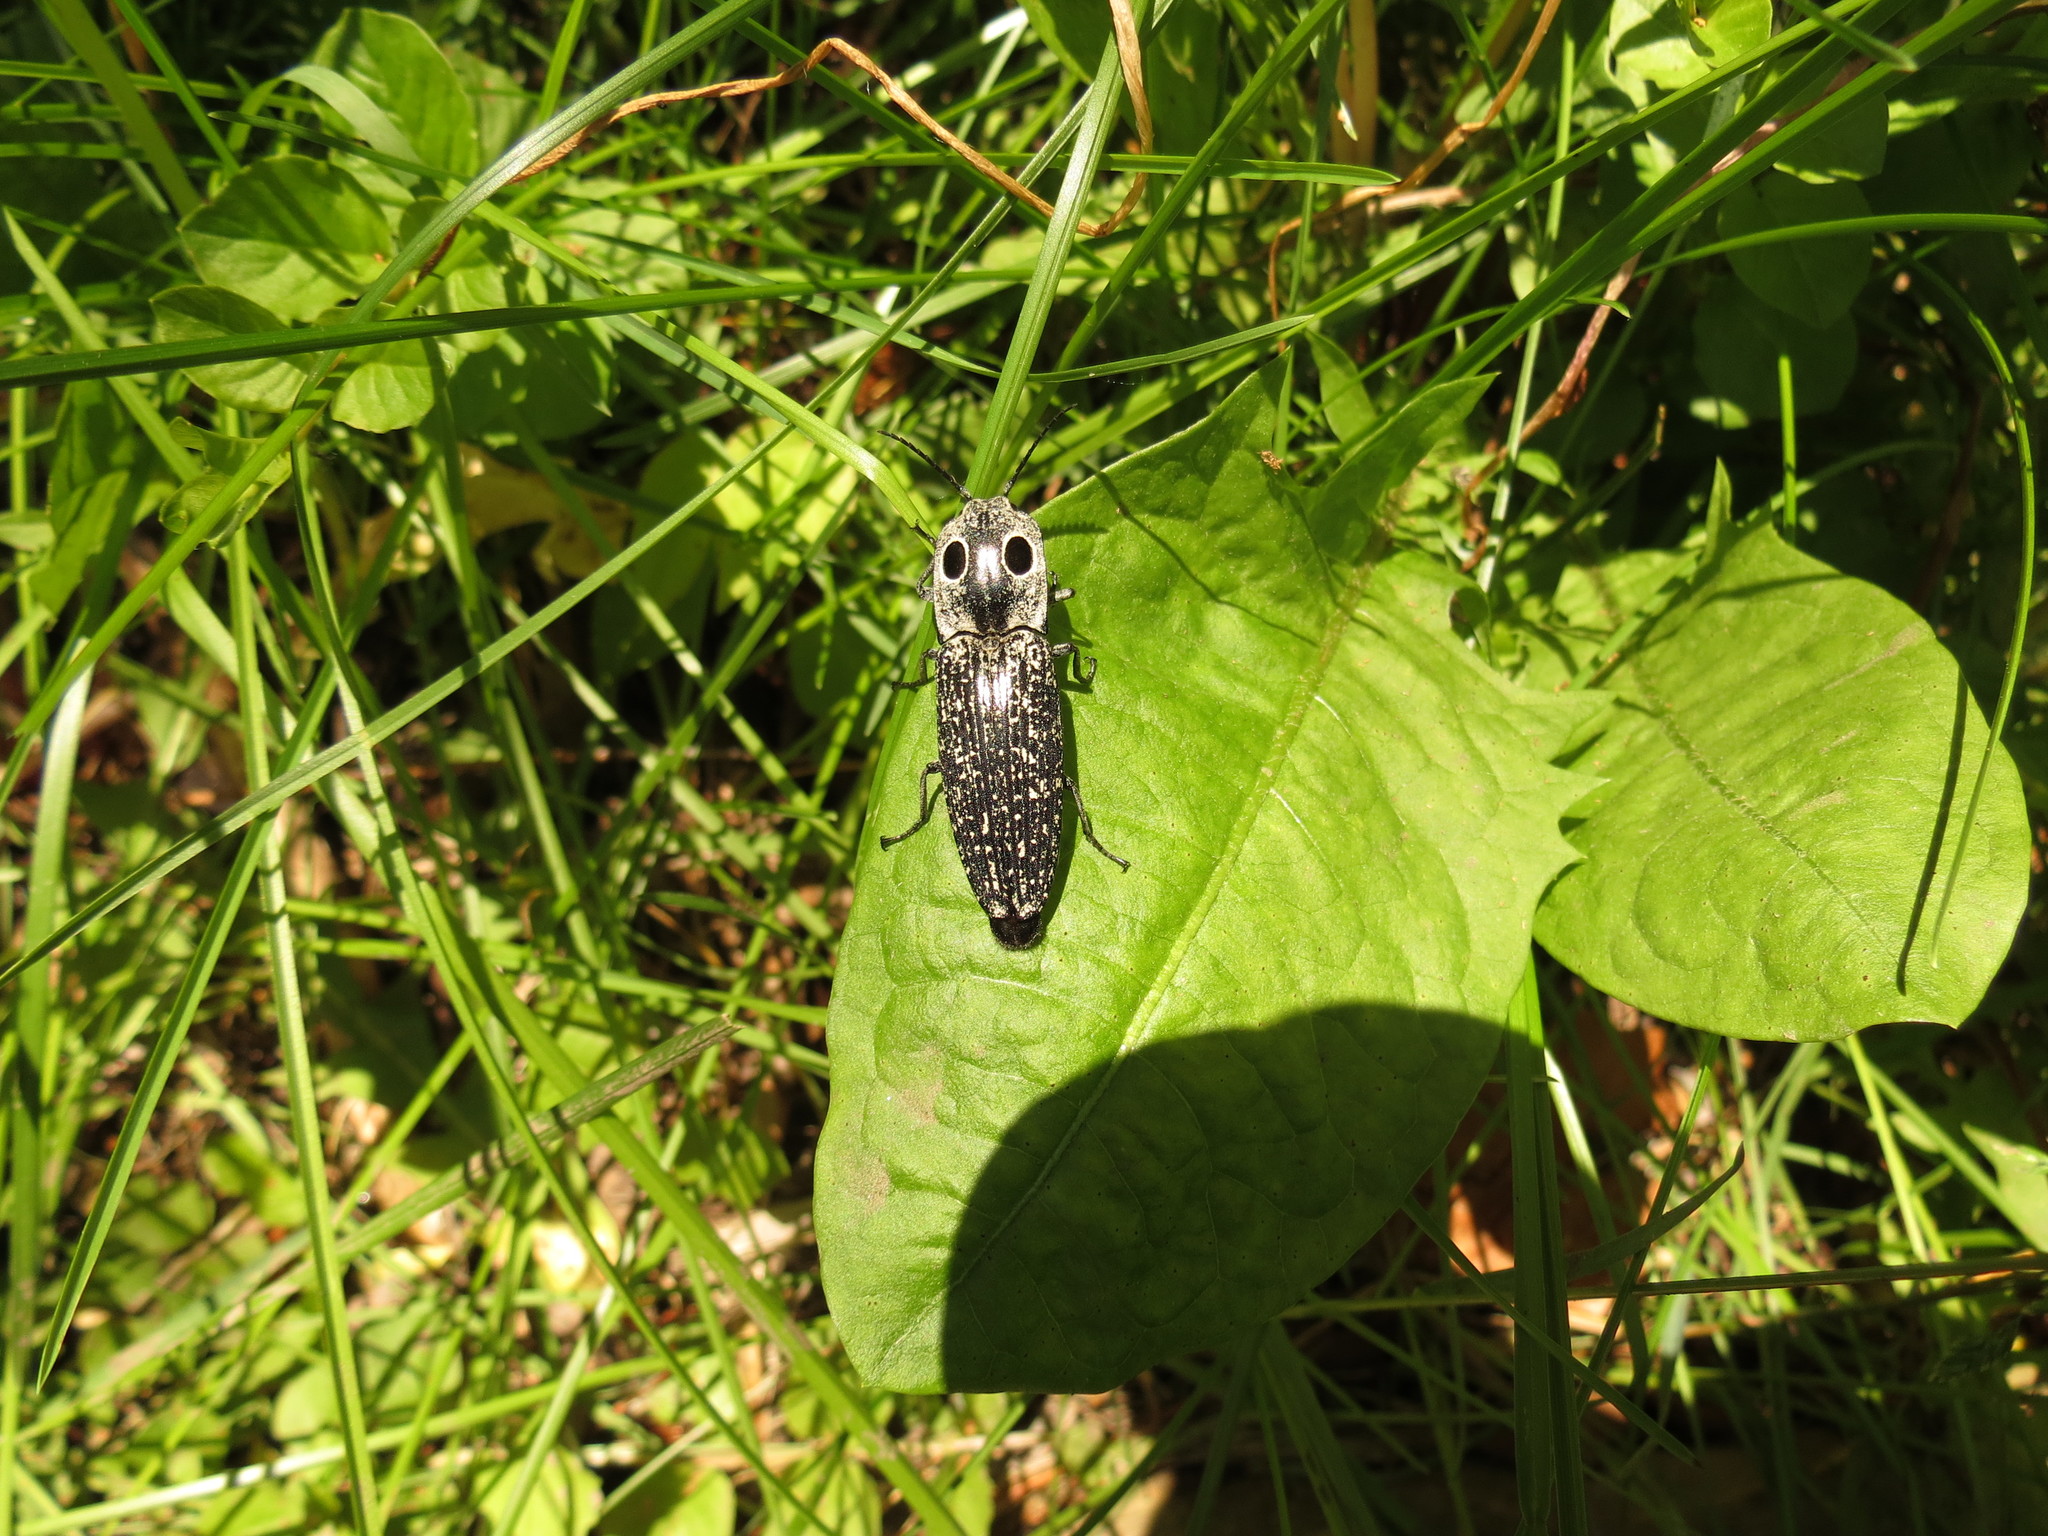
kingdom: Animalia
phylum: Arthropoda
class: Insecta
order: Coleoptera
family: Elateridae
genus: Alaus
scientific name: Alaus oculatus
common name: Eastern eyed click beetle
